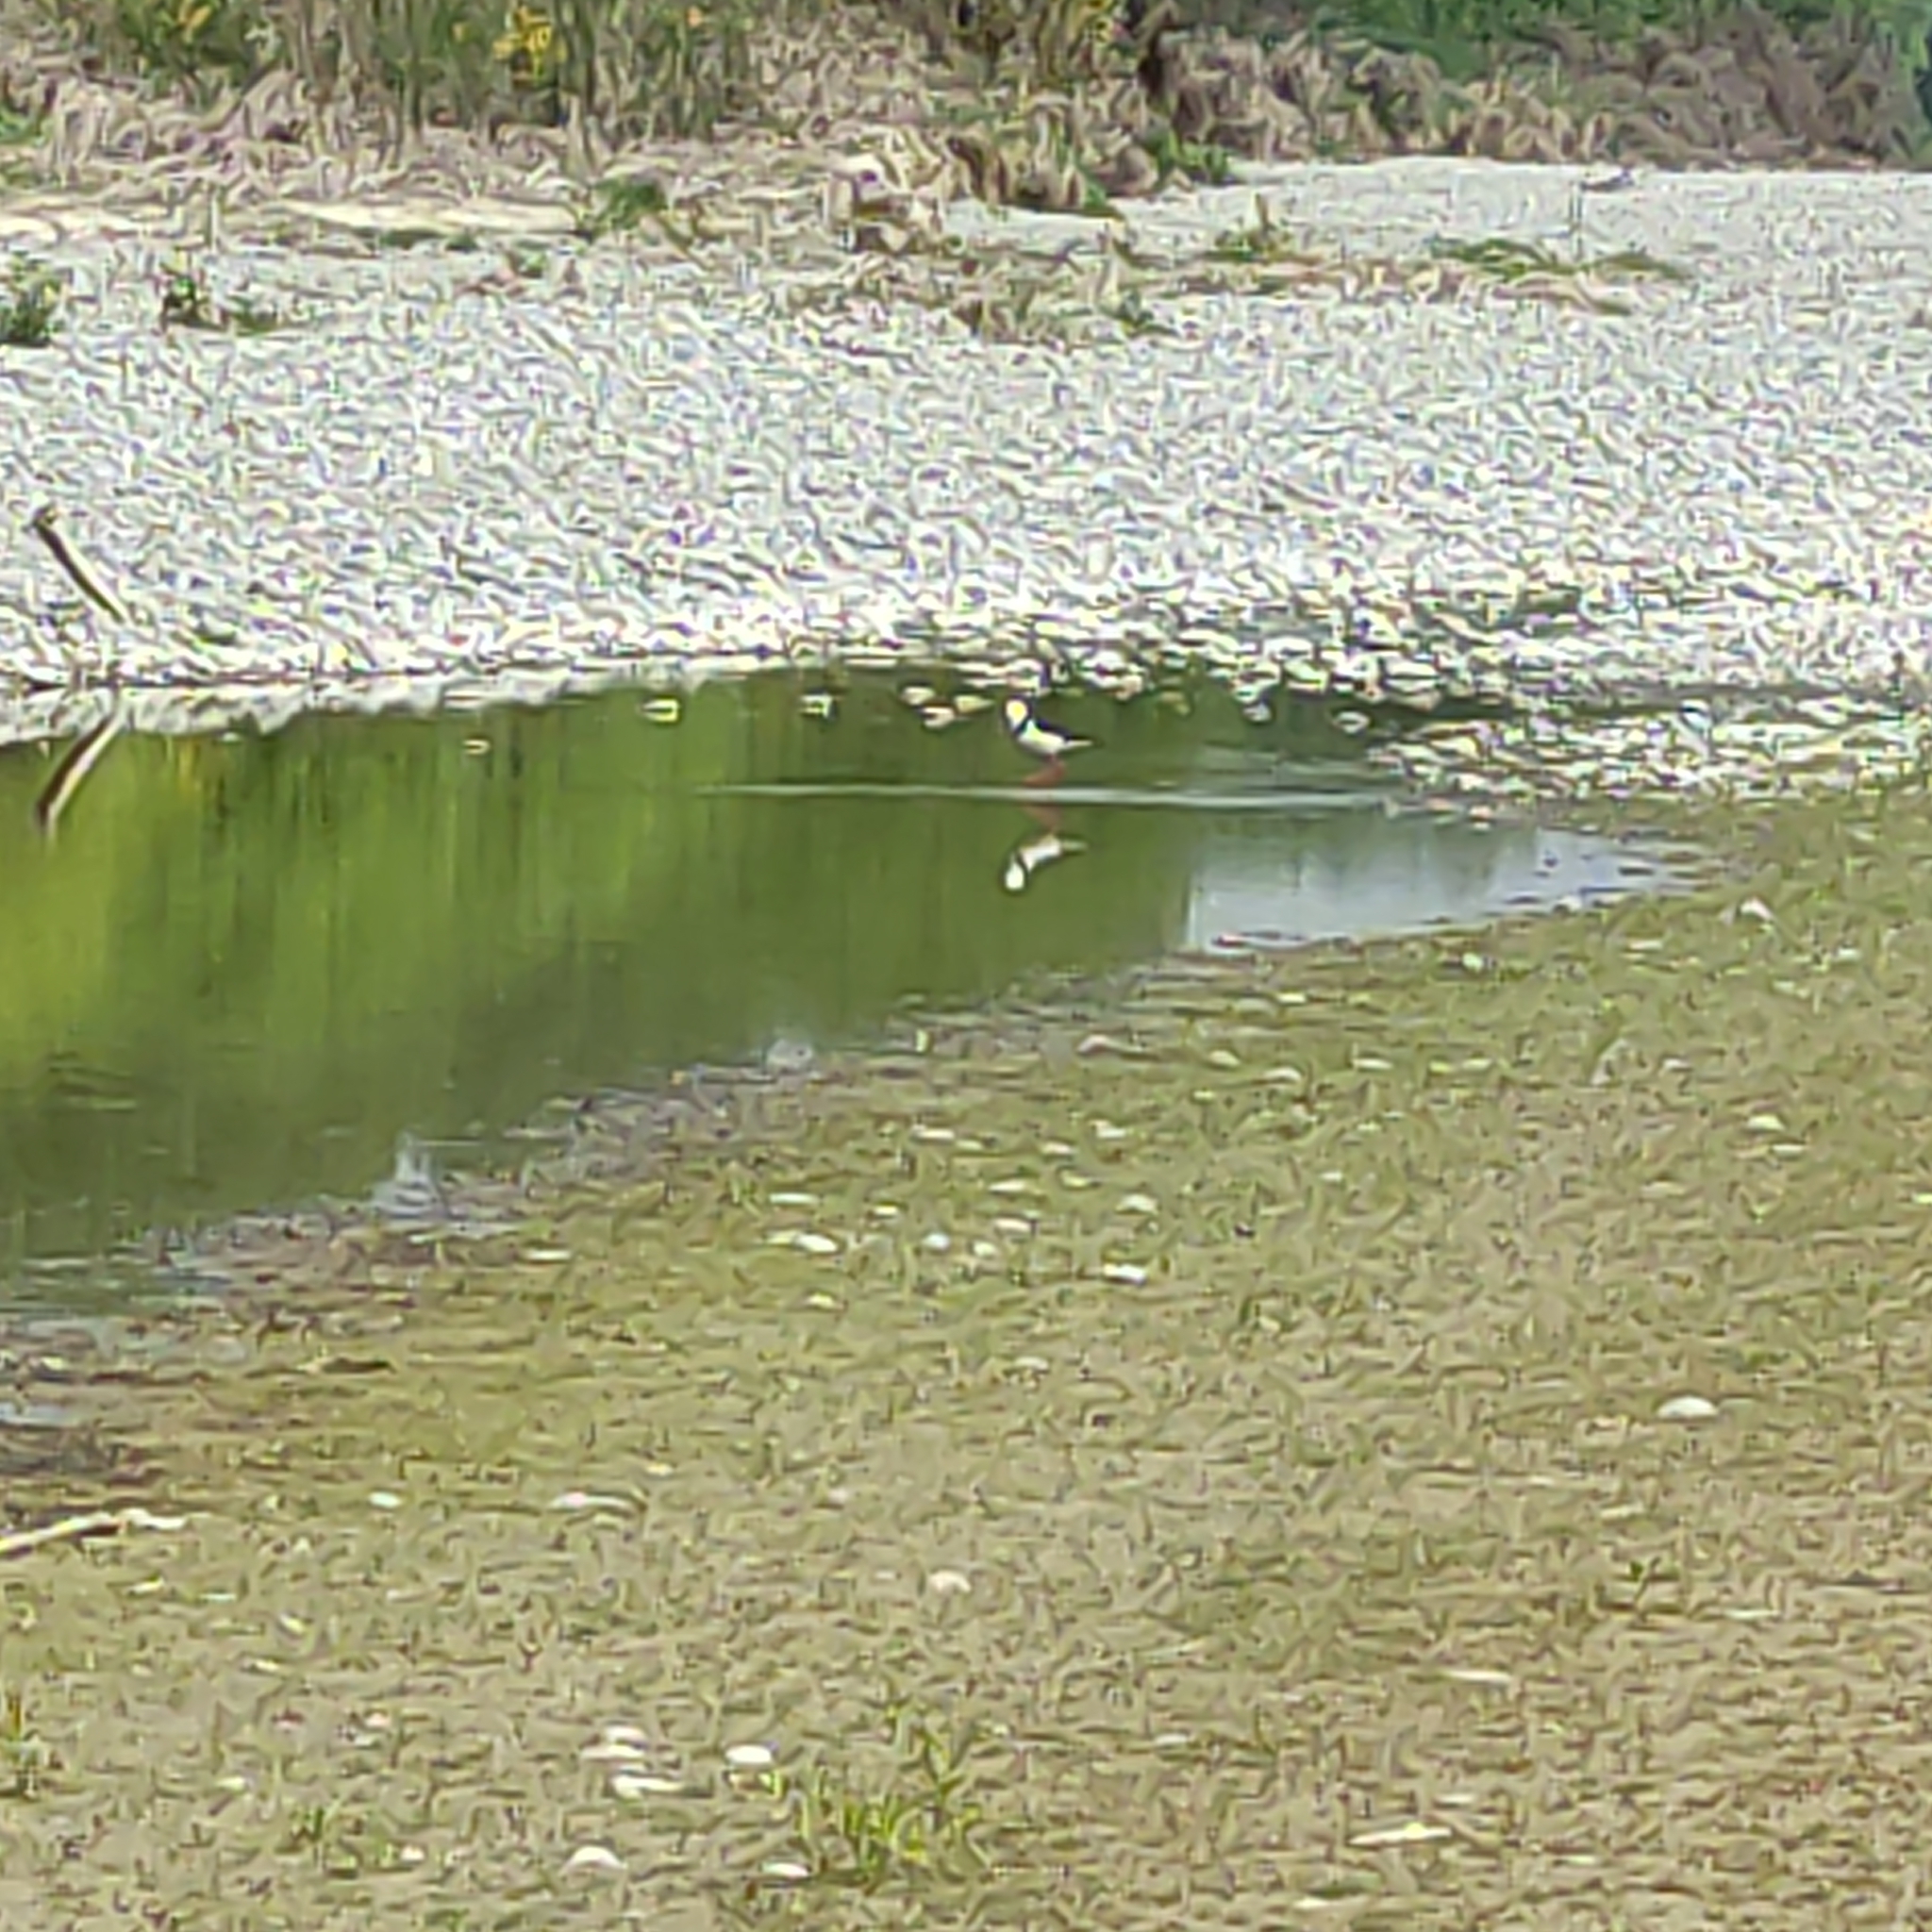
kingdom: Animalia
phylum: Chordata
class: Aves
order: Charadriiformes
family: Recurvirostridae
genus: Himantopus
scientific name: Himantopus leucocephalus
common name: White-headed stilt
